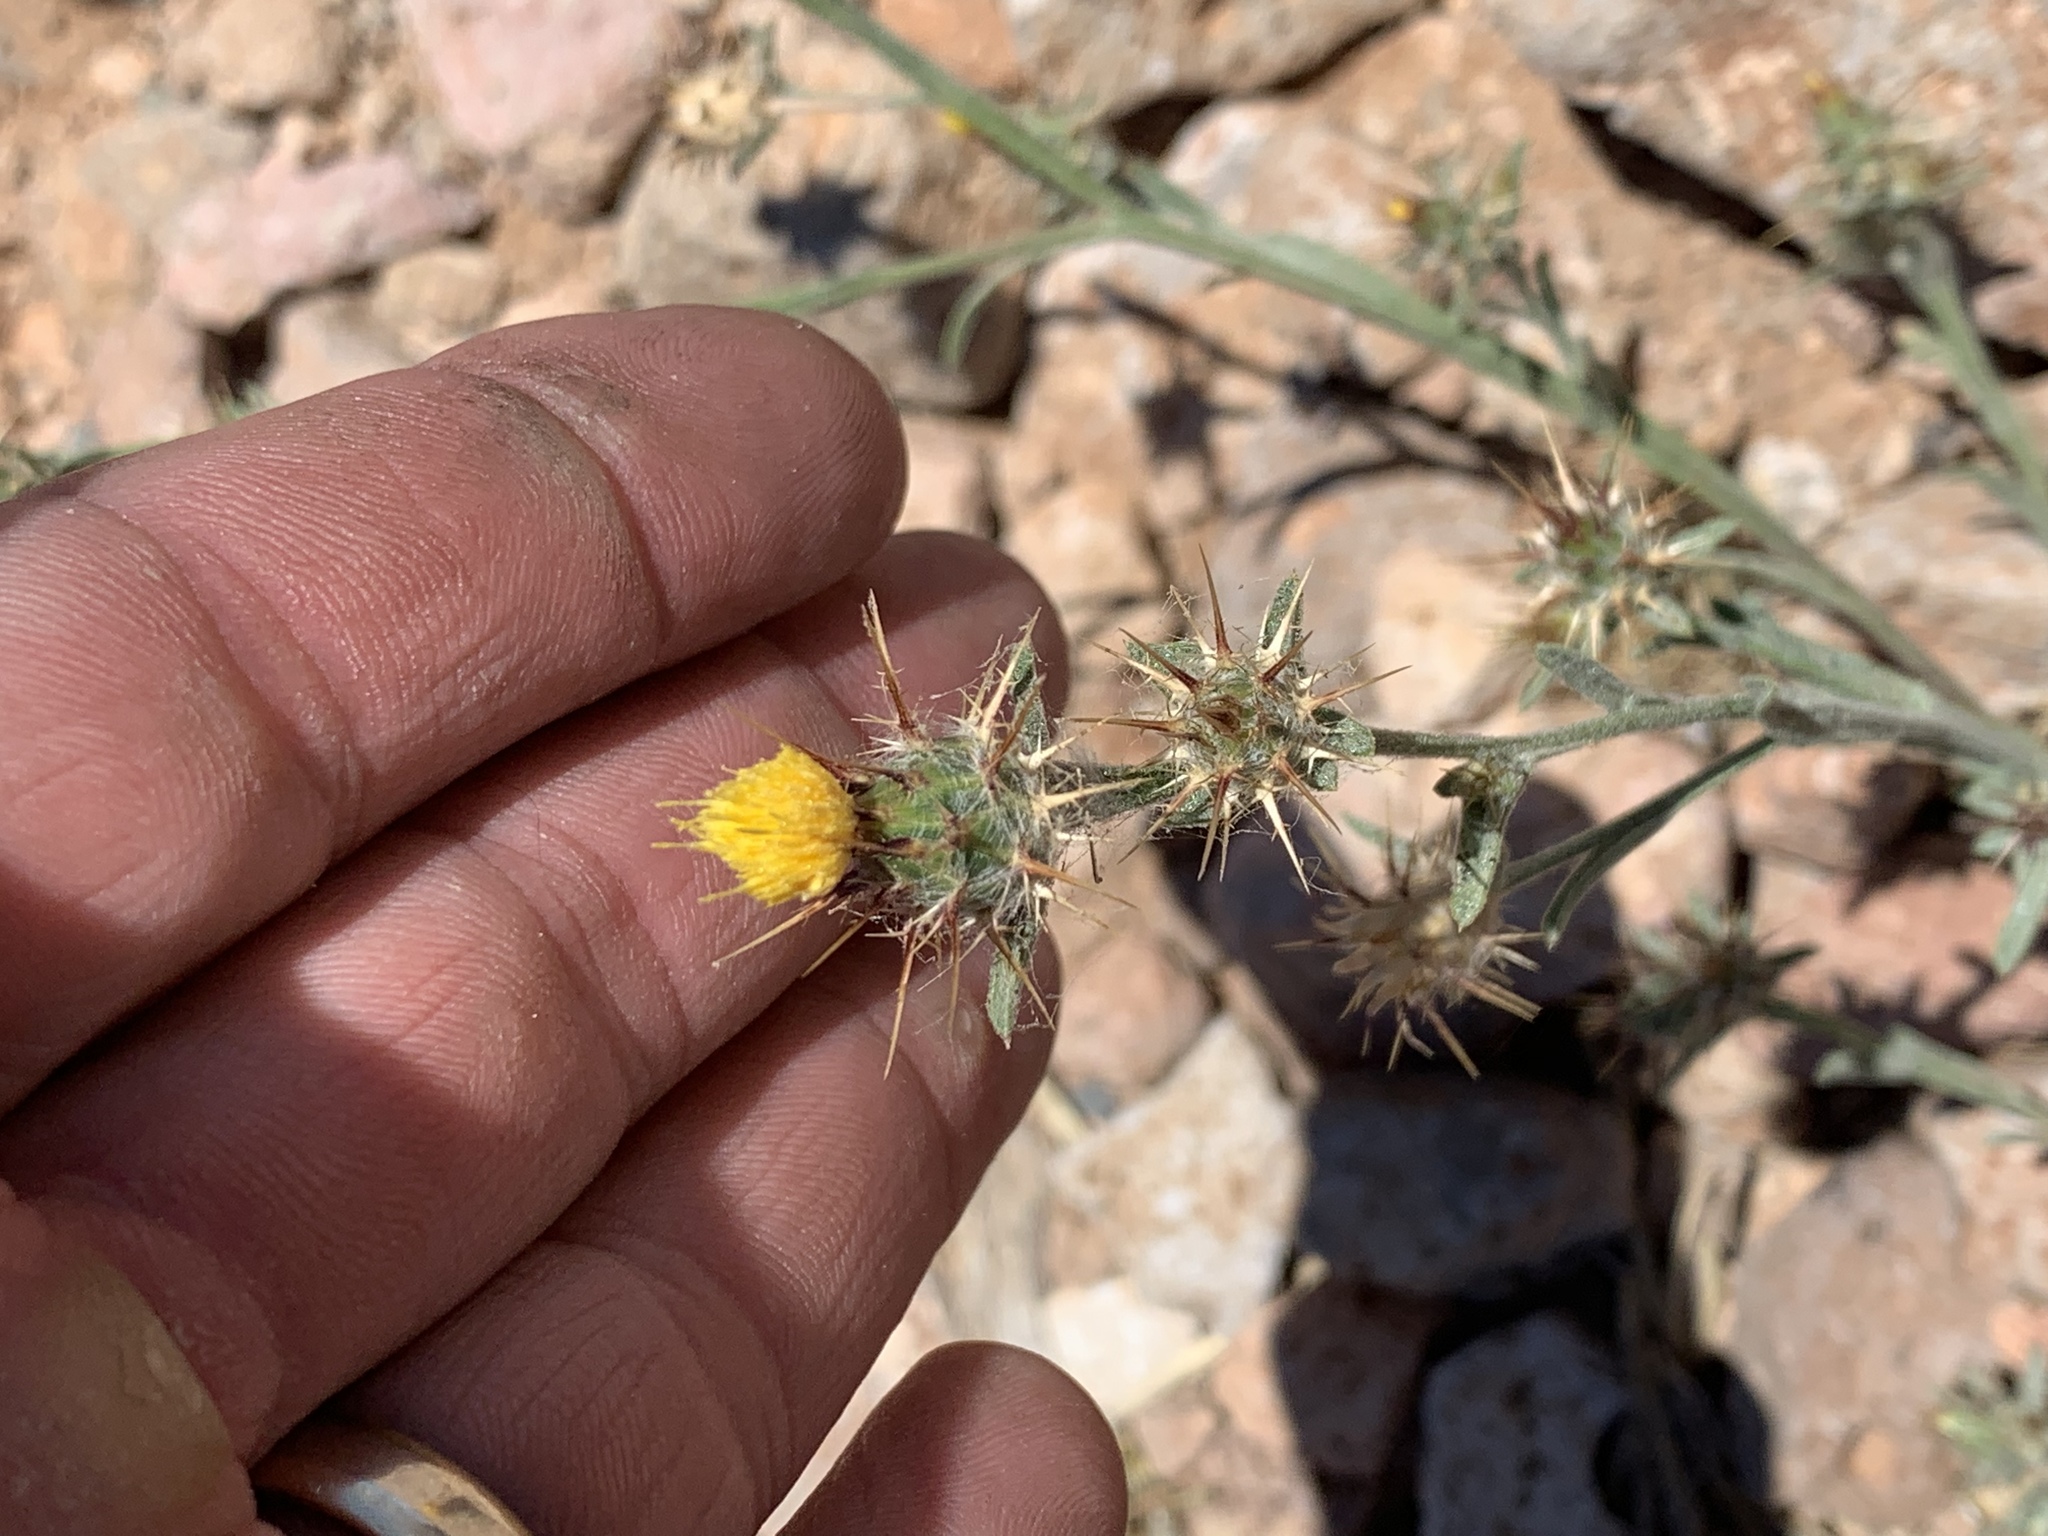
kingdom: Plantae
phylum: Tracheophyta
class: Magnoliopsida
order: Asterales
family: Asteraceae
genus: Centaurea
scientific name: Centaurea melitensis
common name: Maltese star-thistle
